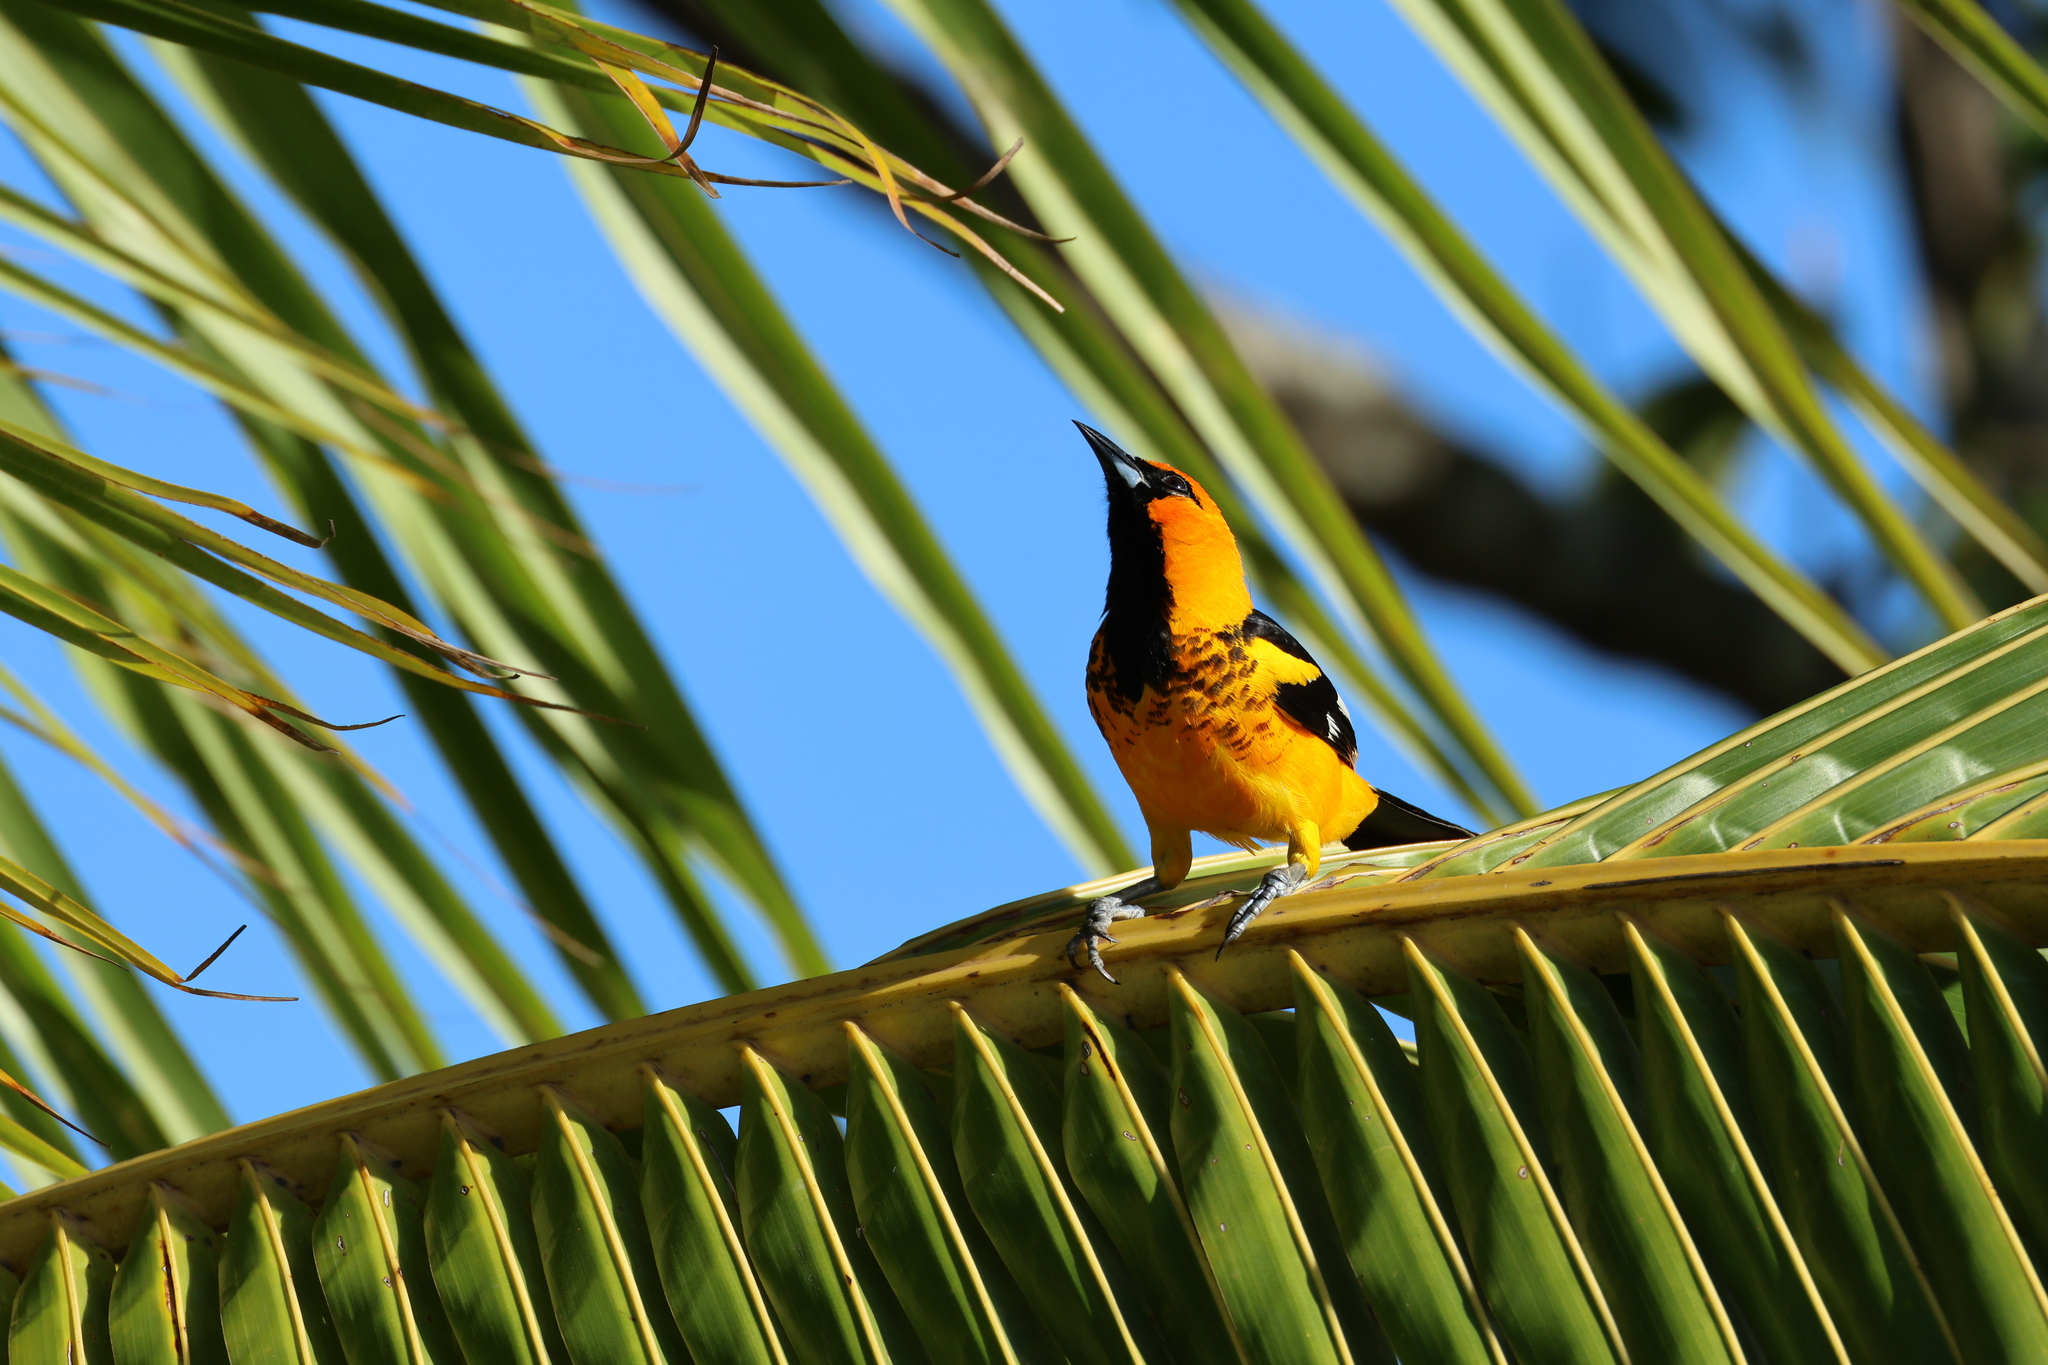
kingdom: Animalia
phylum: Chordata
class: Aves
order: Passeriformes
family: Icteridae
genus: Icterus
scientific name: Icterus pectoralis
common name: Spot-breasted oriole
